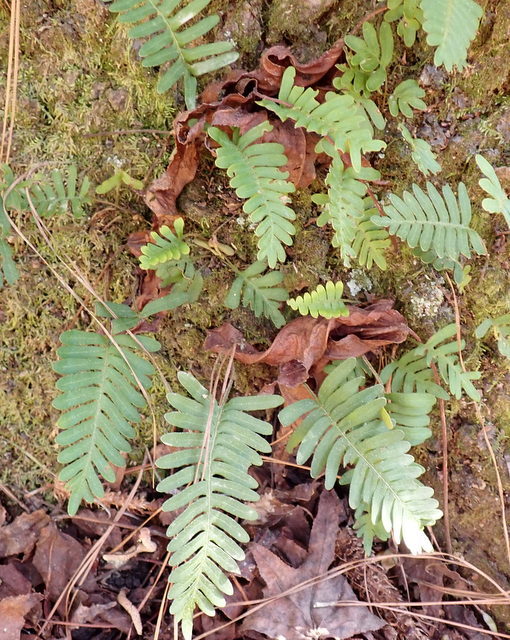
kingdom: Plantae
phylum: Tracheophyta
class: Polypodiopsida
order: Polypodiales
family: Polypodiaceae
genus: Pleopeltis
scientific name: Pleopeltis michauxiana
